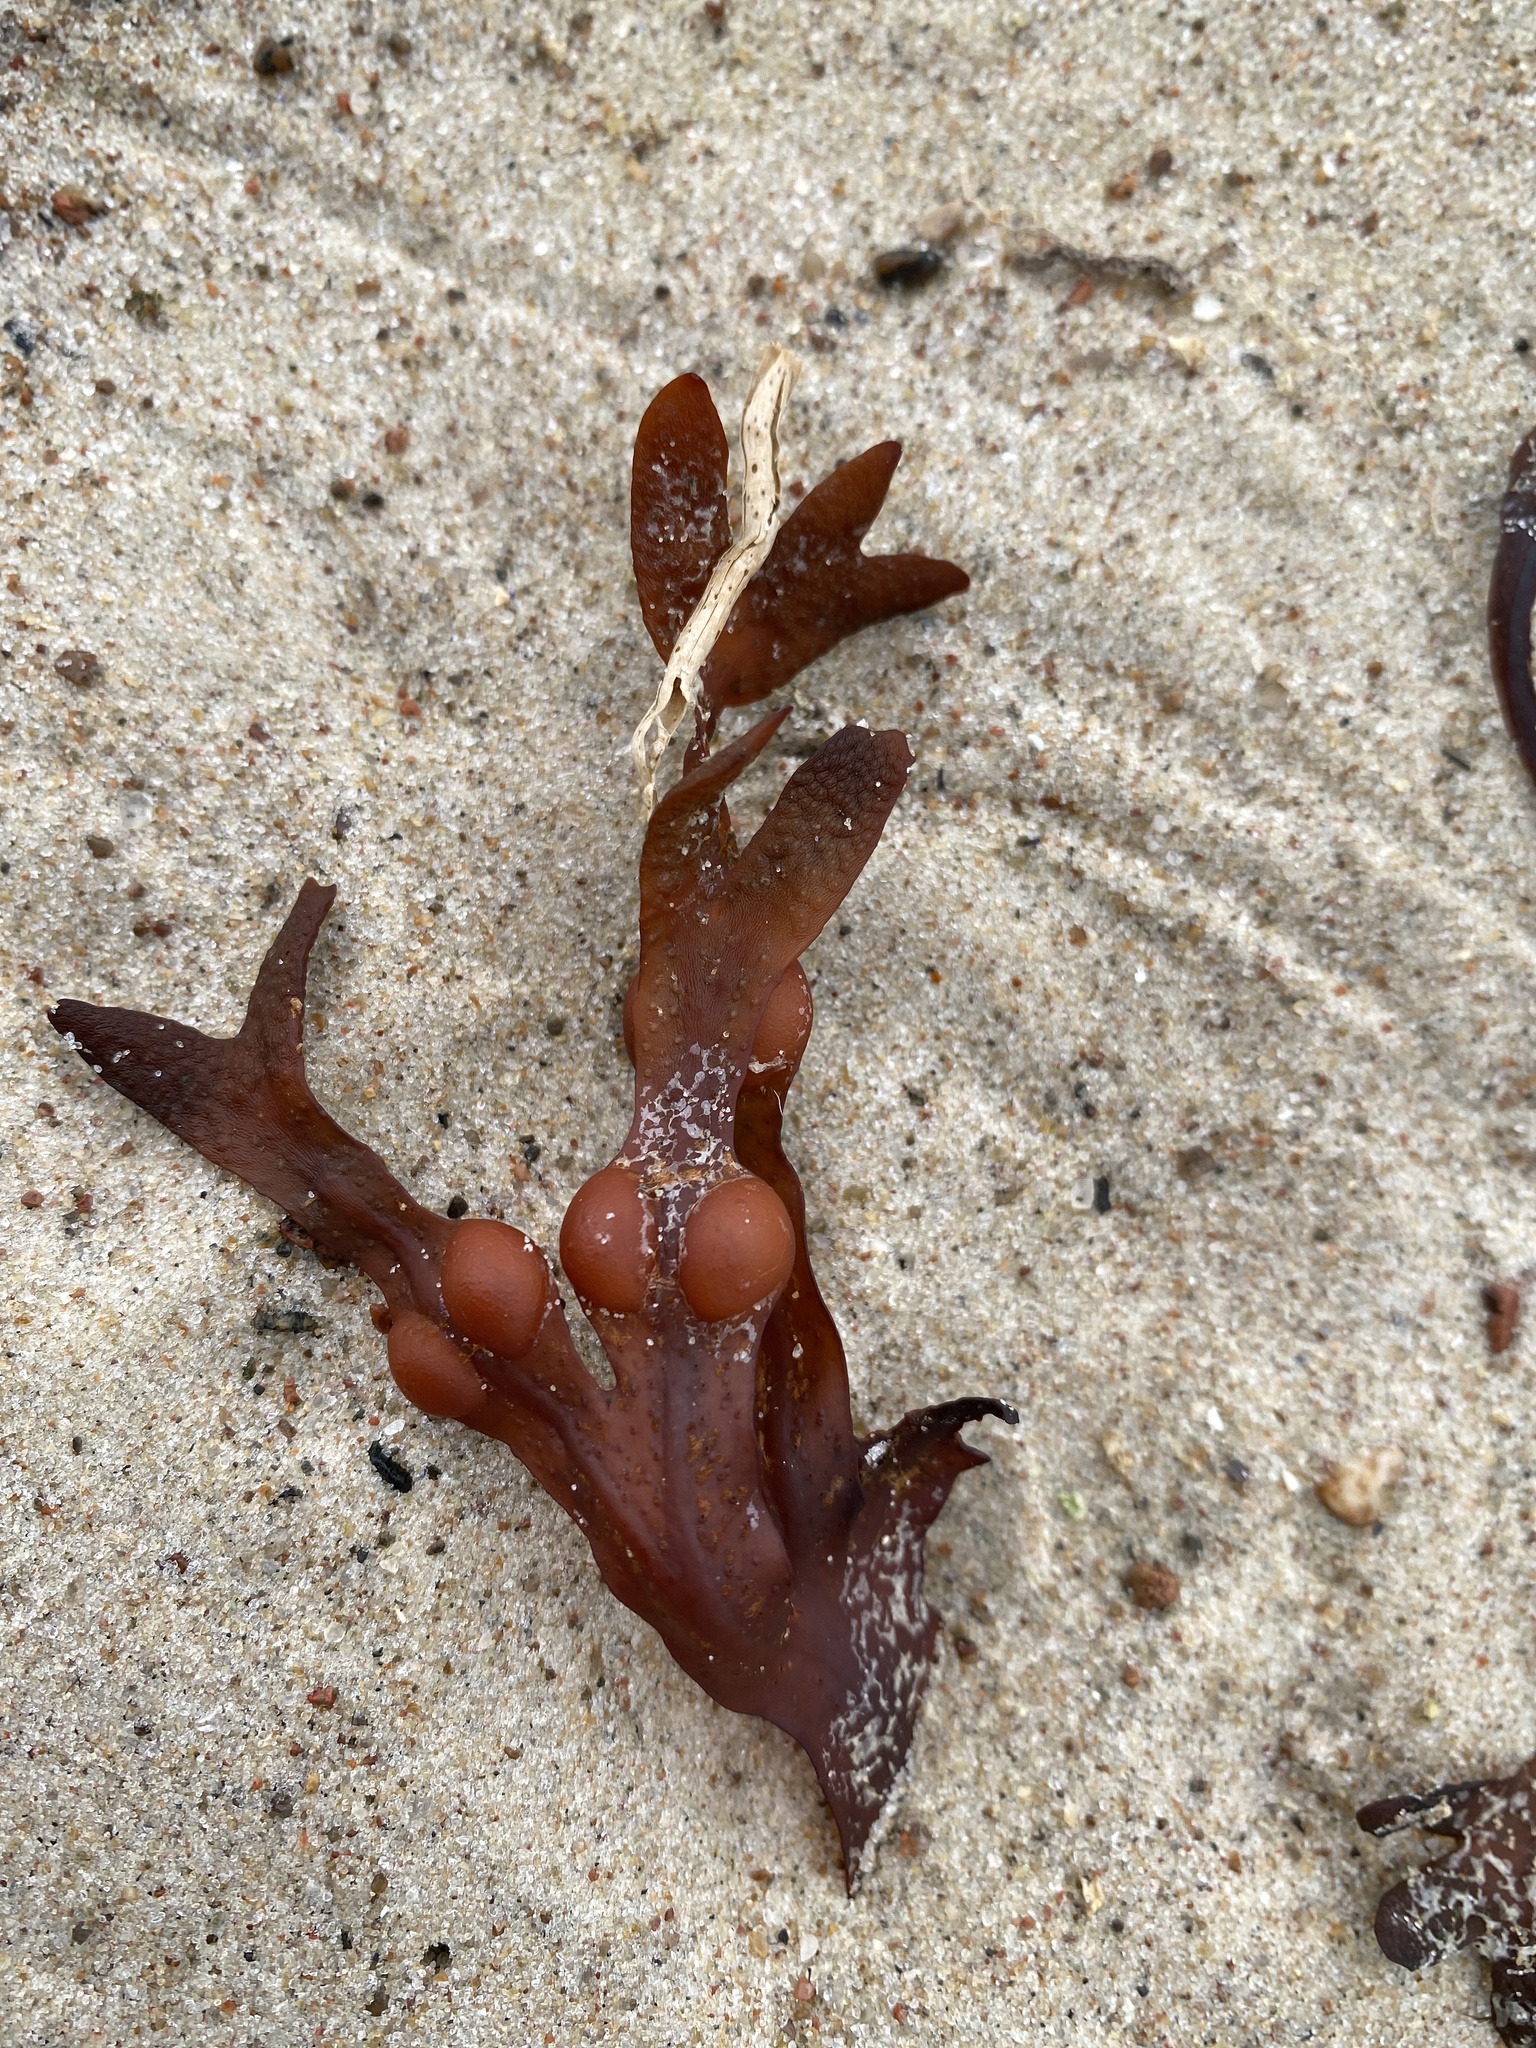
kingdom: Chromista
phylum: Ochrophyta
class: Phaeophyceae
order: Fucales
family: Fucaceae
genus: Fucus
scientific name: Fucus vesiculosus
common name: Bladder wrack
